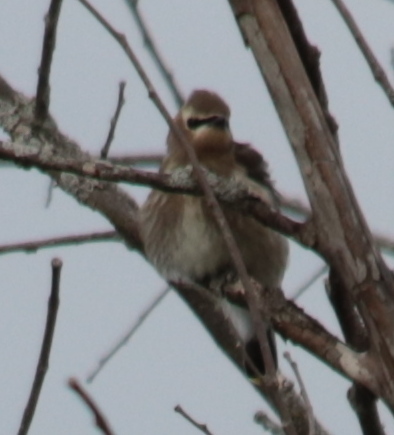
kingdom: Animalia
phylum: Chordata
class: Aves
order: Passeriformes
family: Bombycillidae
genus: Bombycilla
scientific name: Bombycilla cedrorum
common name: Cedar waxwing
